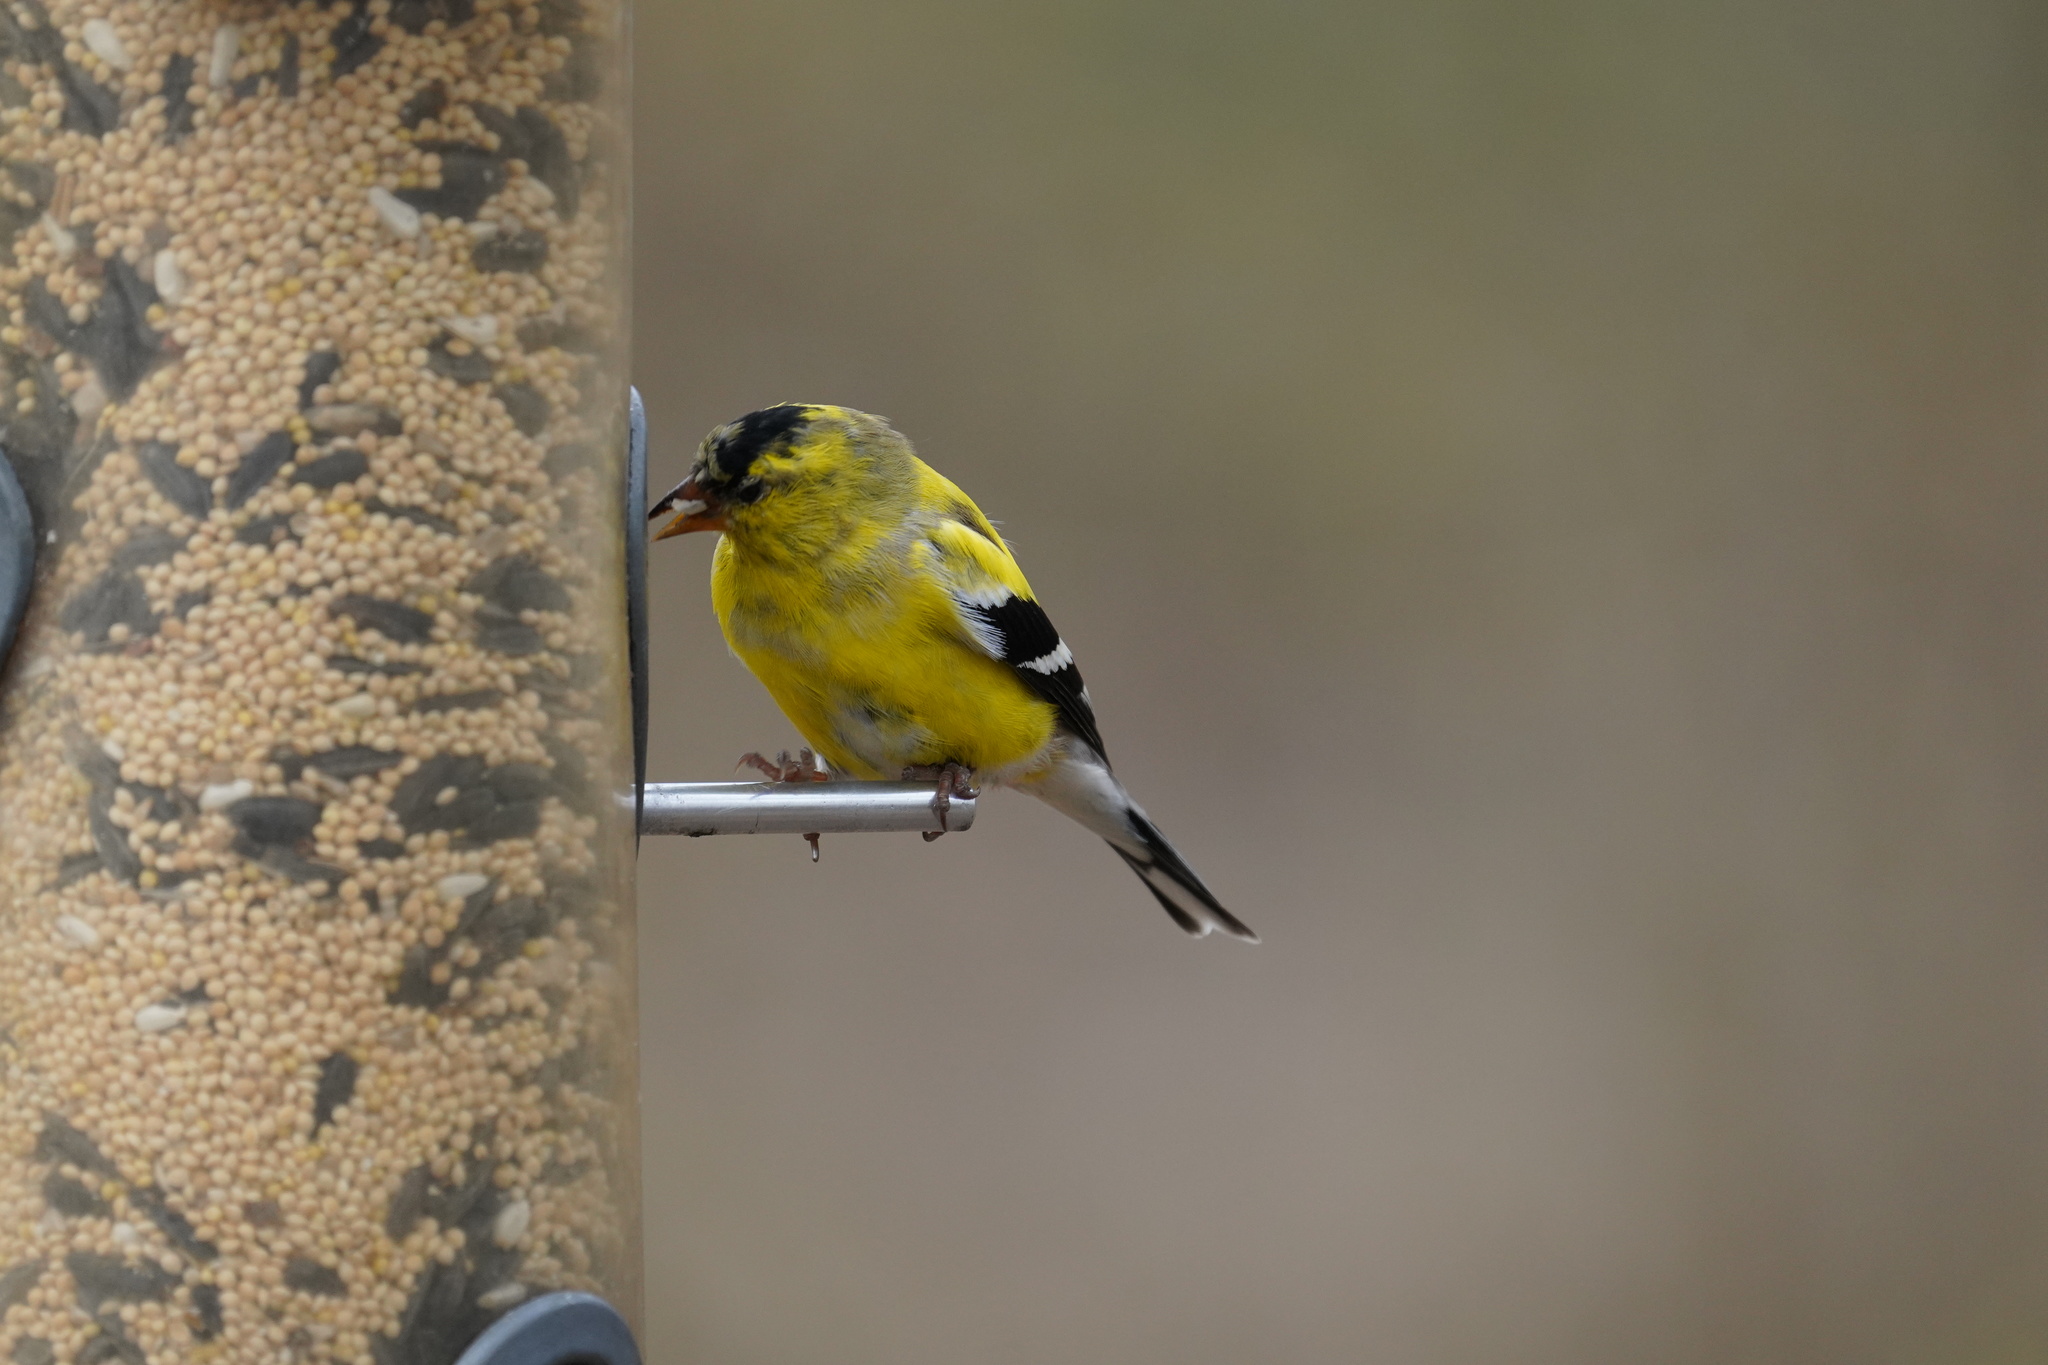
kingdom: Animalia
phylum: Chordata
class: Aves
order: Passeriformes
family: Fringillidae
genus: Spinus
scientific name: Spinus tristis
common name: American goldfinch
